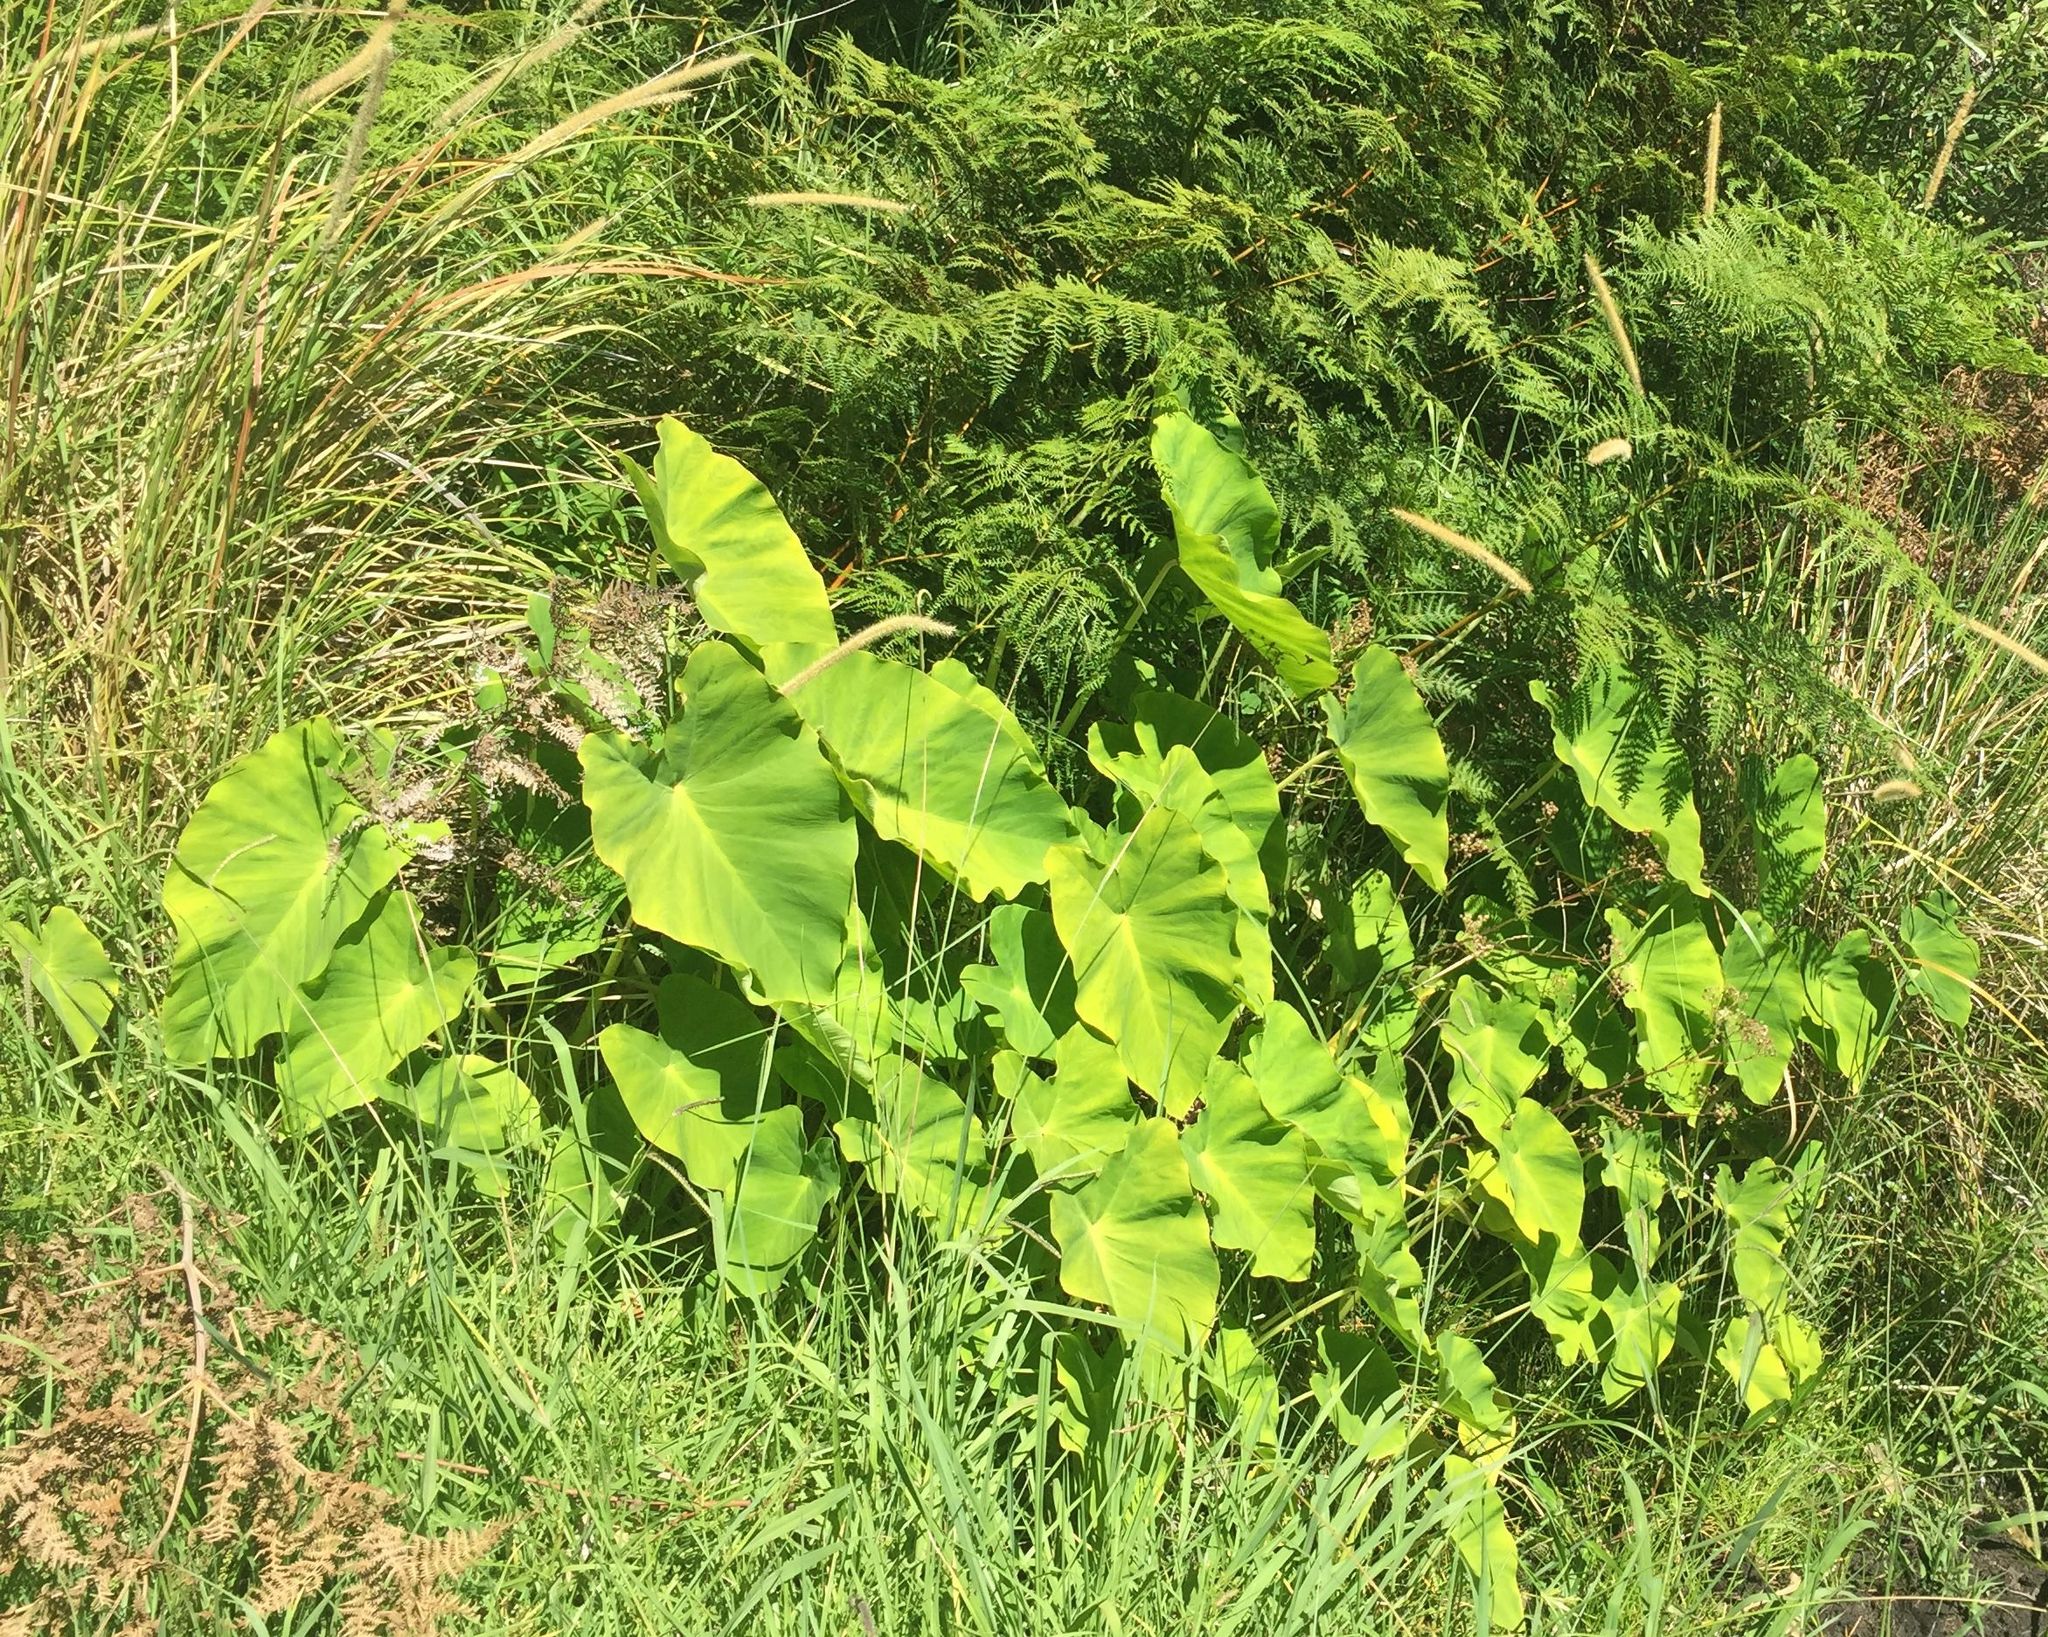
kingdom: Plantae
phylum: Tracheophyta
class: Liliopsida
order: Alismatales
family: Araceae
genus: Colocasia
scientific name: Colocasia esculenta
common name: Taro
